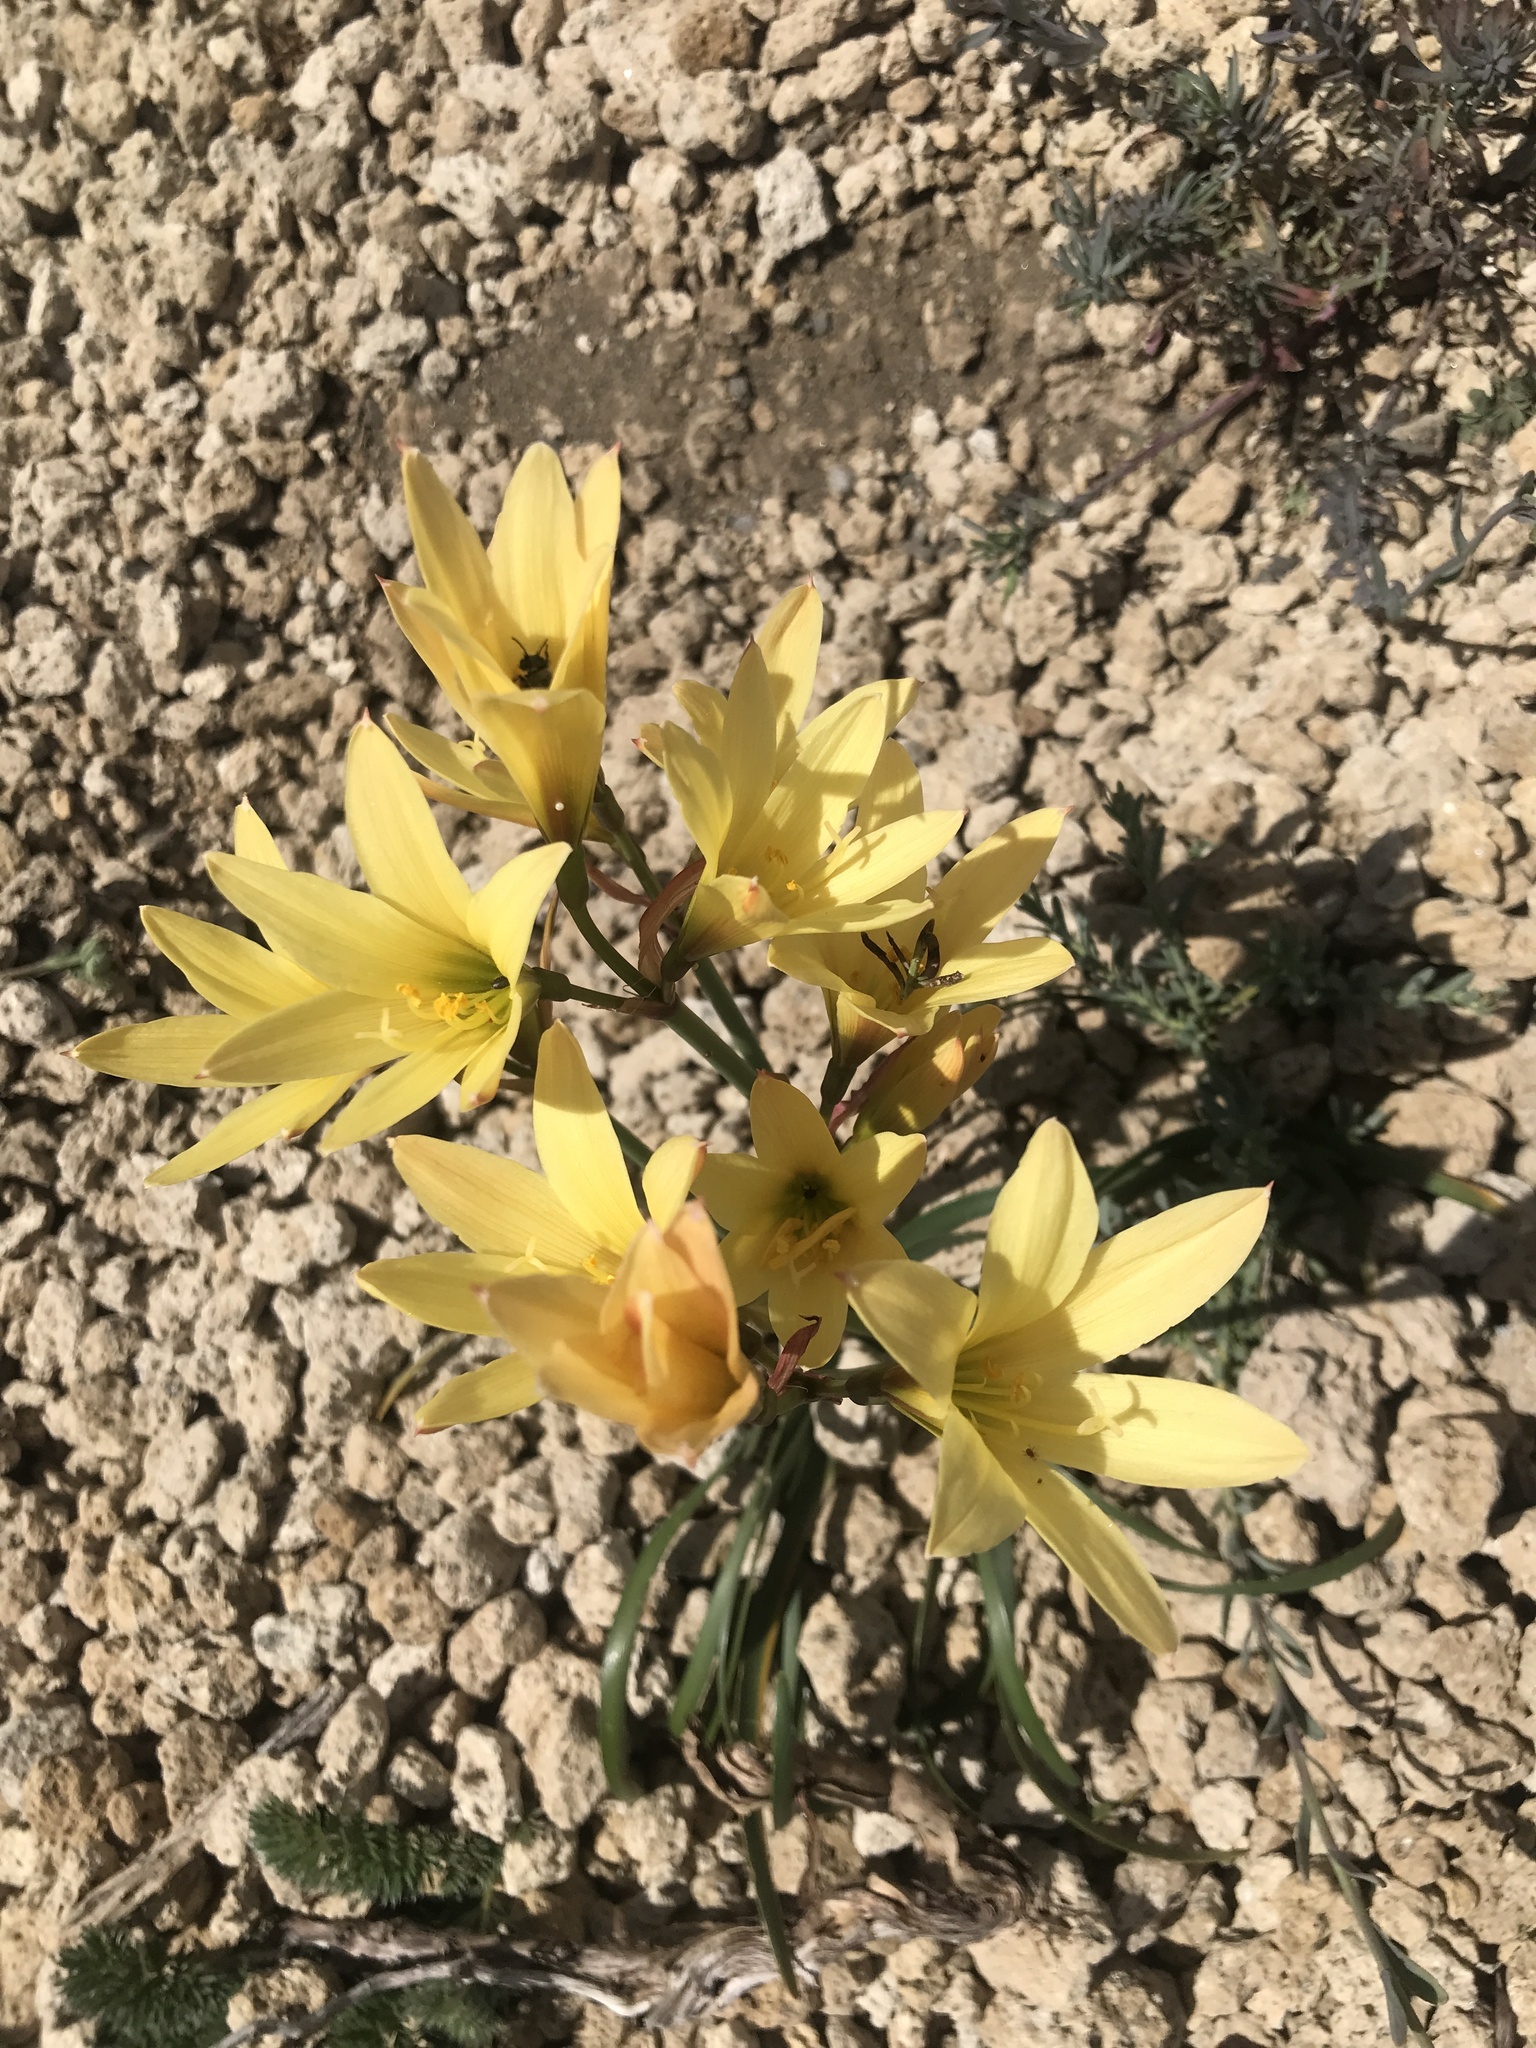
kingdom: Plantae
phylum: Tracheophyta
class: Liliopsida
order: Asparagales
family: Amaryllidaceae
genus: Zephyranthes
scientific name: Zephyranthes gilliesiana
